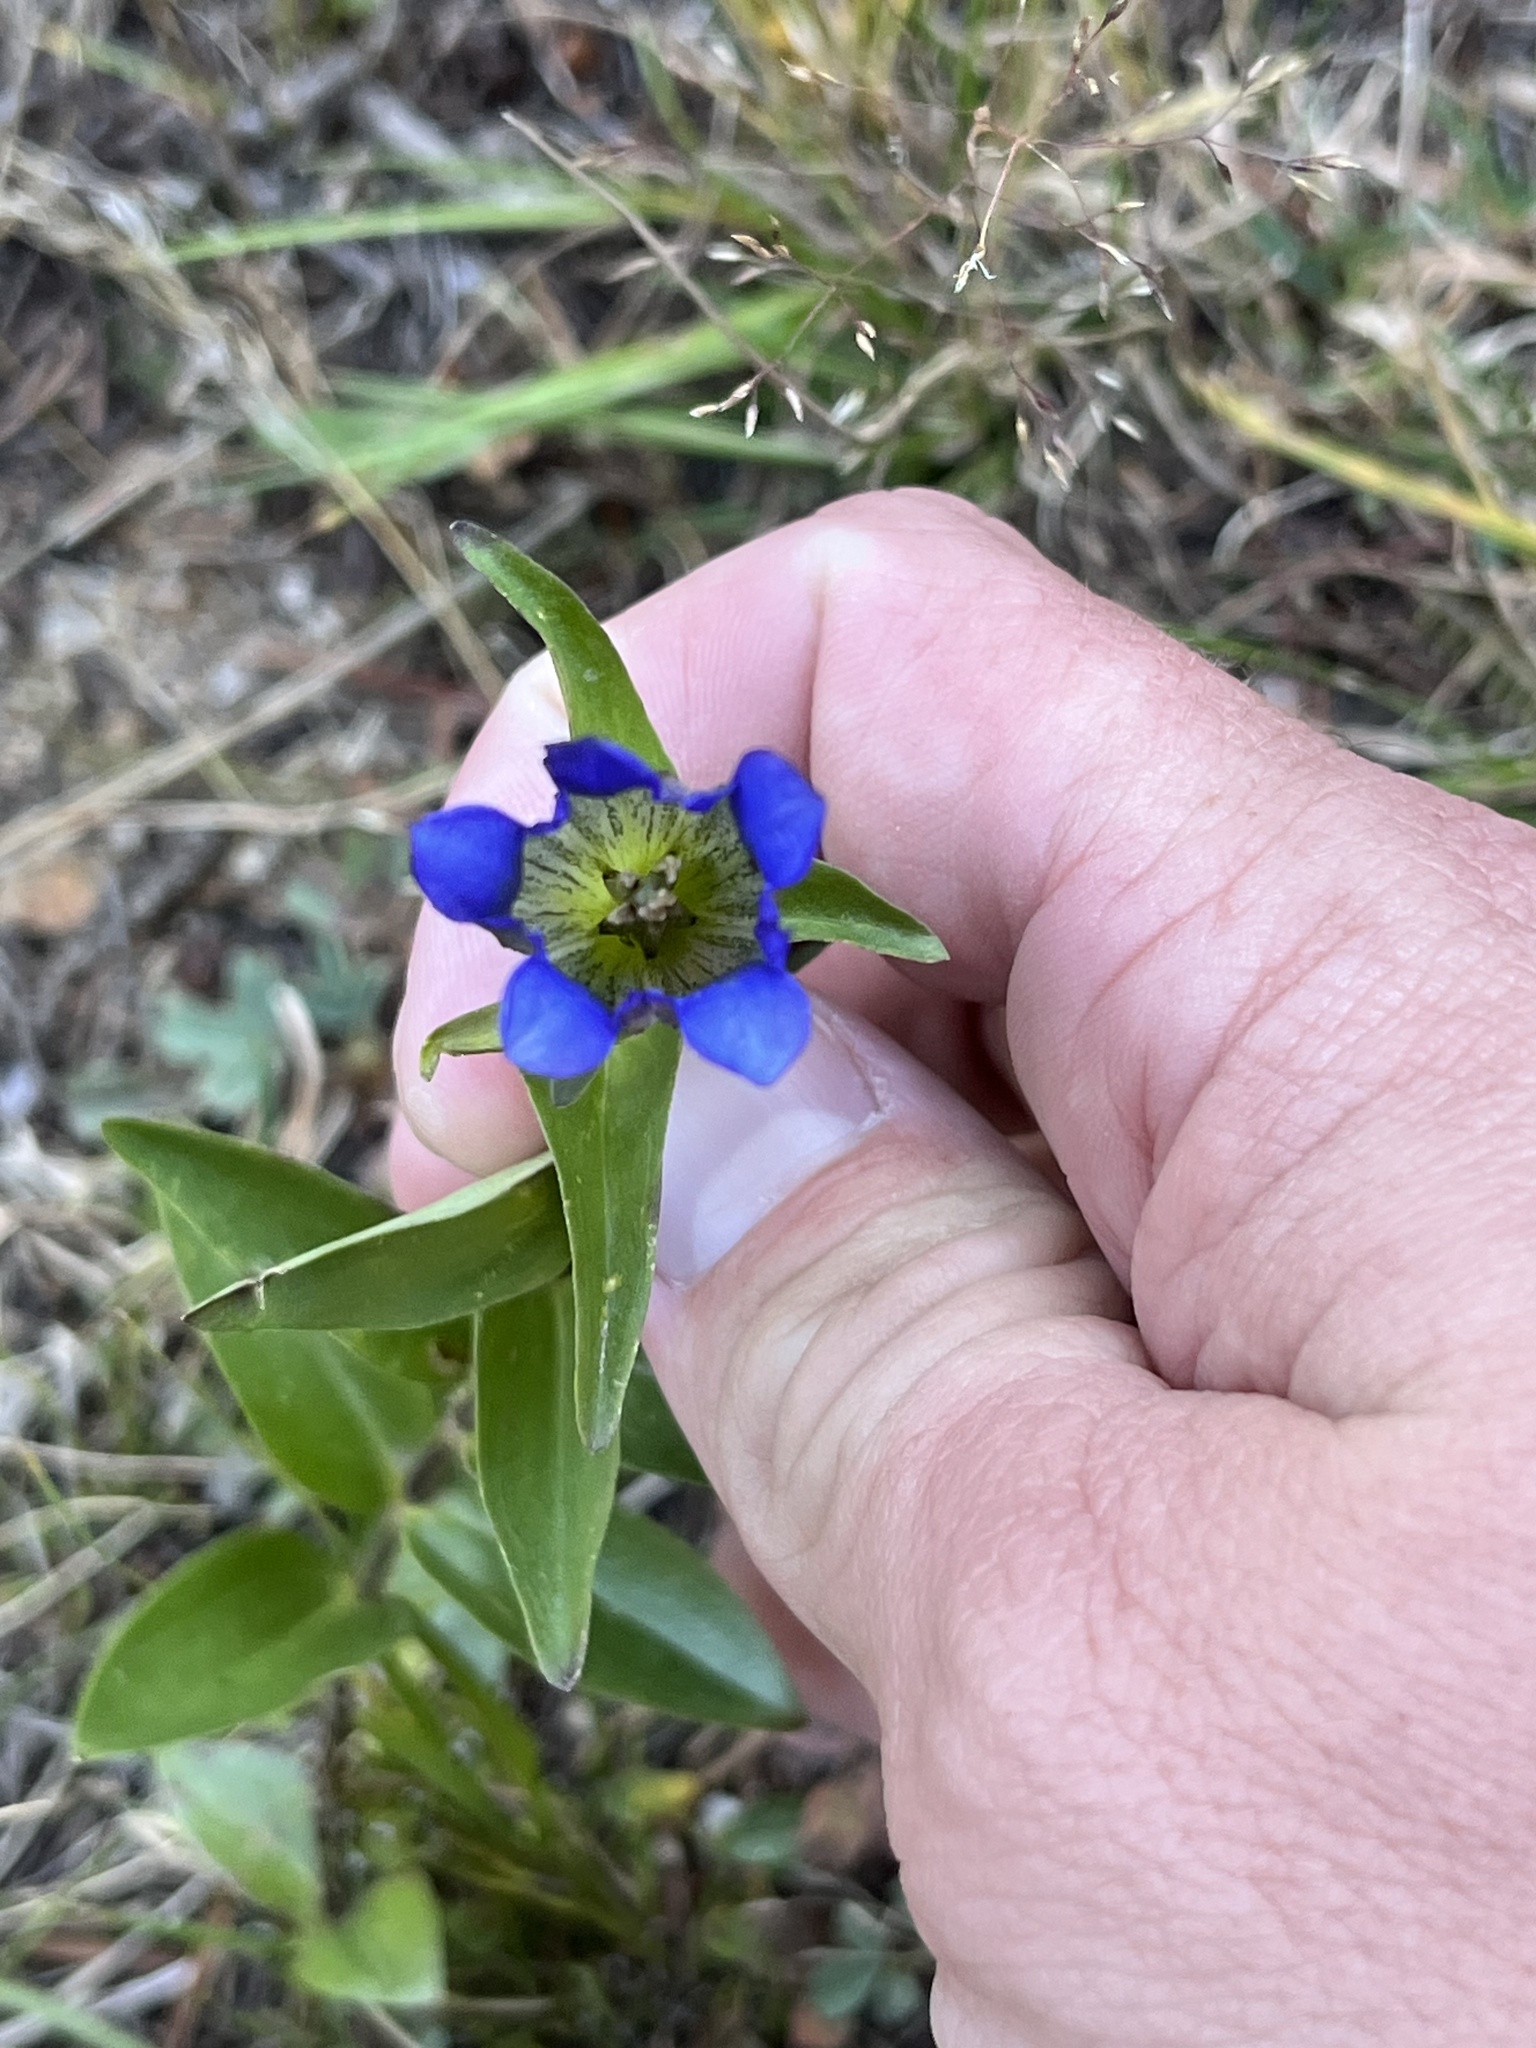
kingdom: Plantae
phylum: Tracheophyta
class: Magnoliopsida
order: Gentianales
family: Gentianaceae
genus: Gentiana
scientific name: Gentiana parryi
